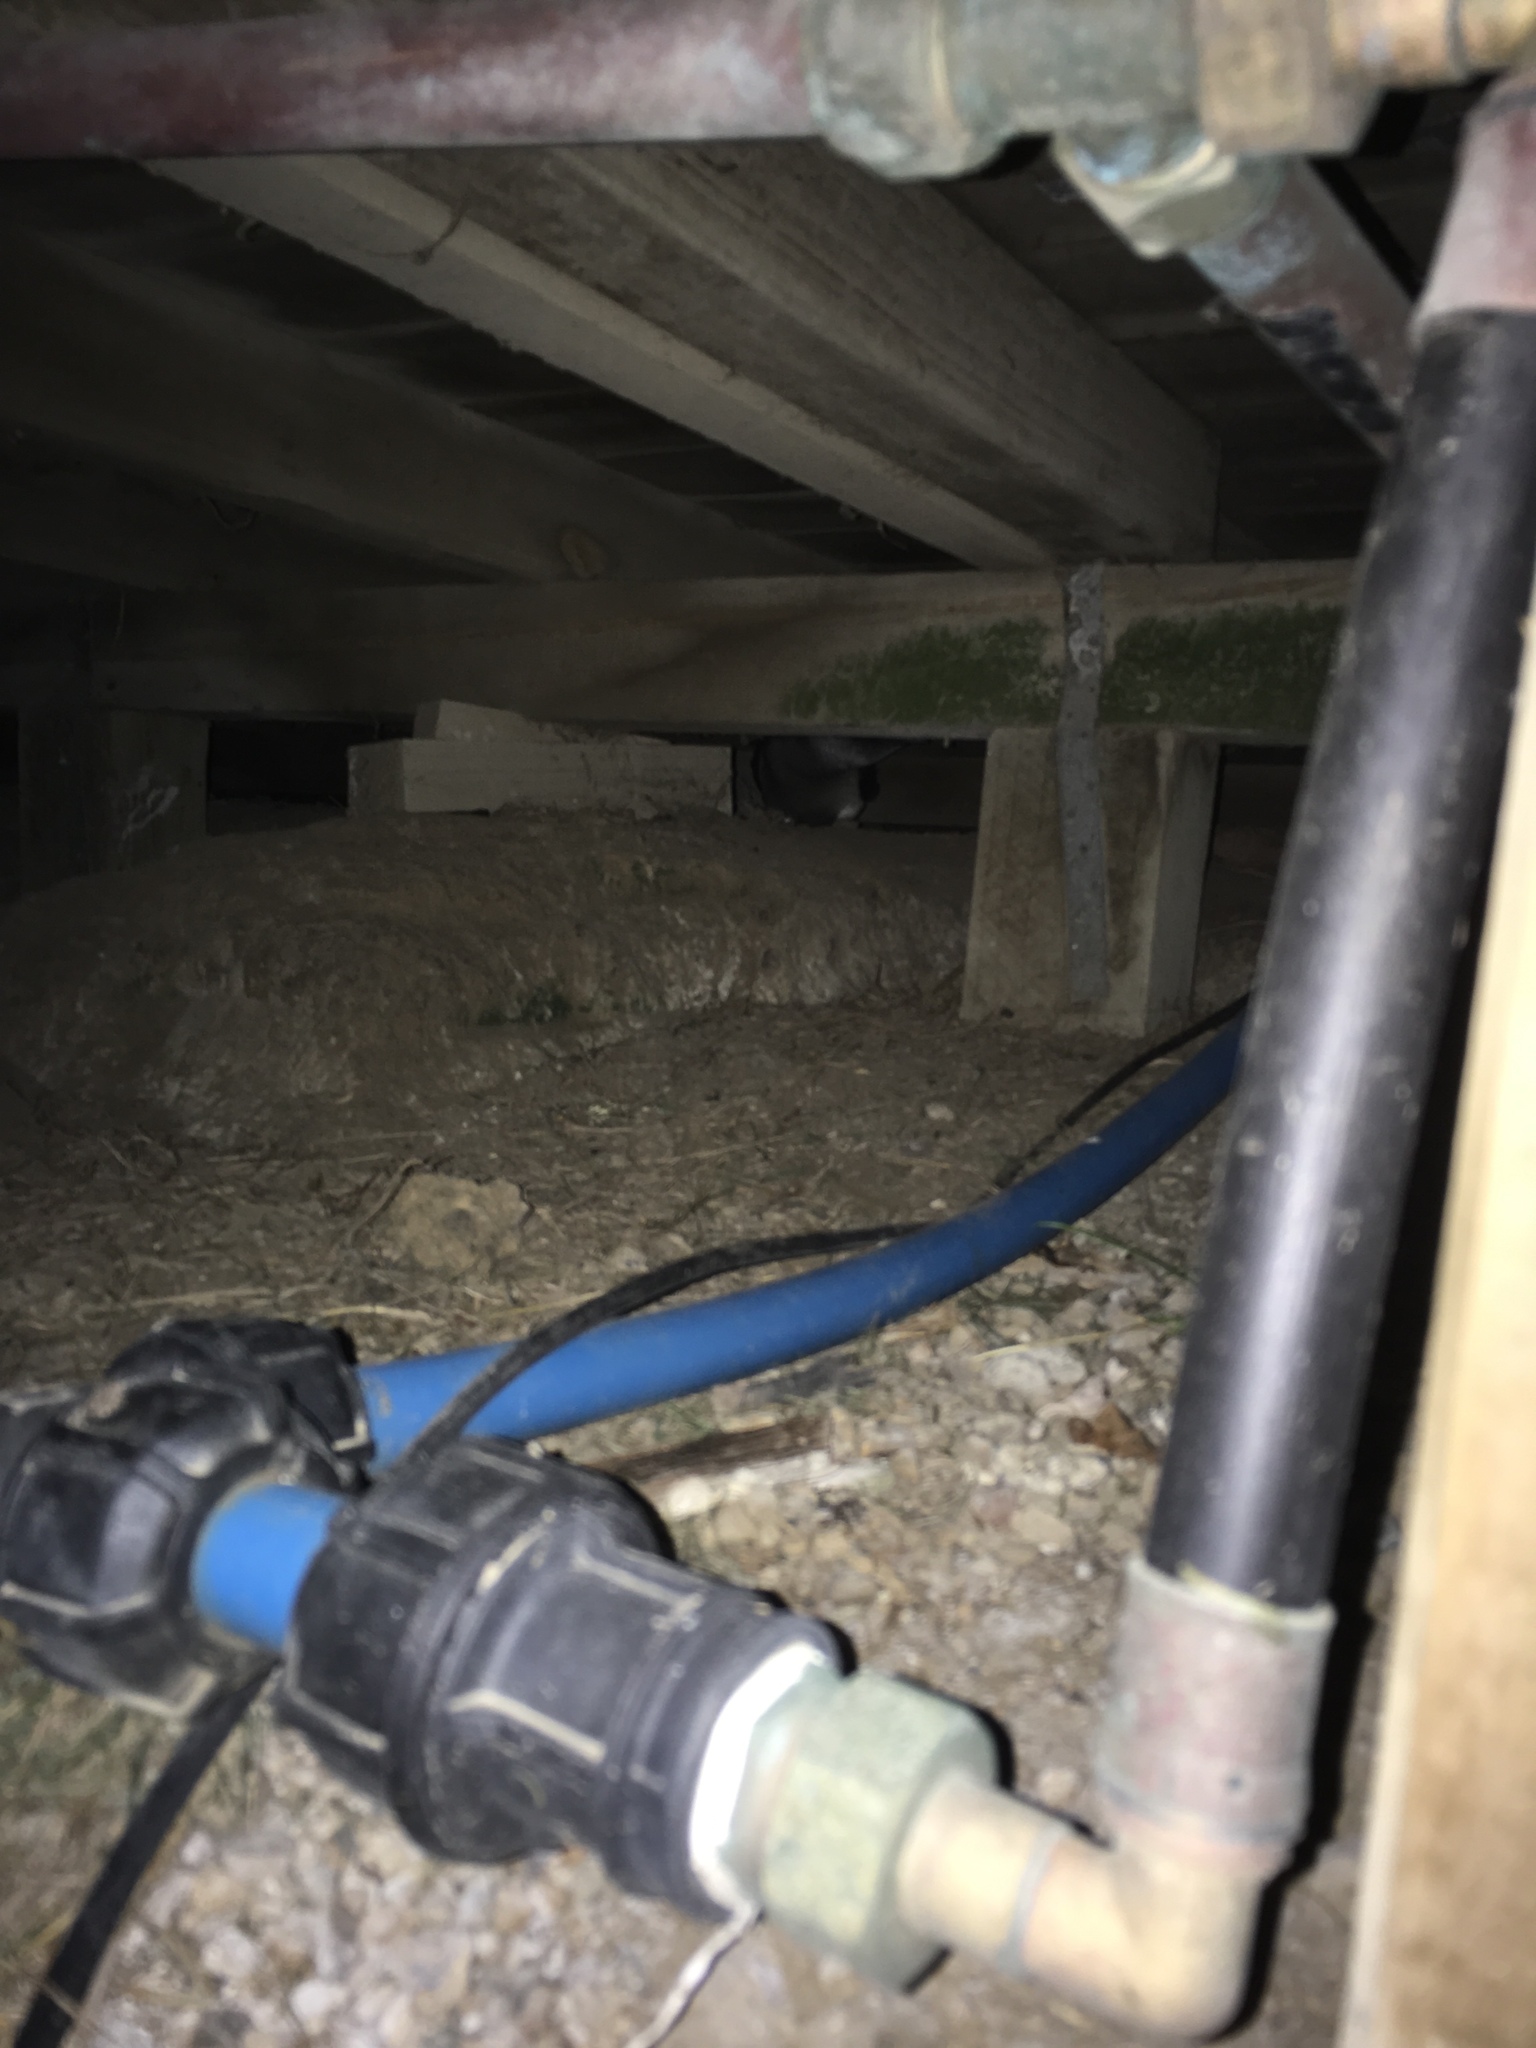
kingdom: Animalia
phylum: Chordata
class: Aves
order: Sphenisciformes
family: Spheniscidae
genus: Eudyptula
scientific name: Eudyptula minor
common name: Little penguin
